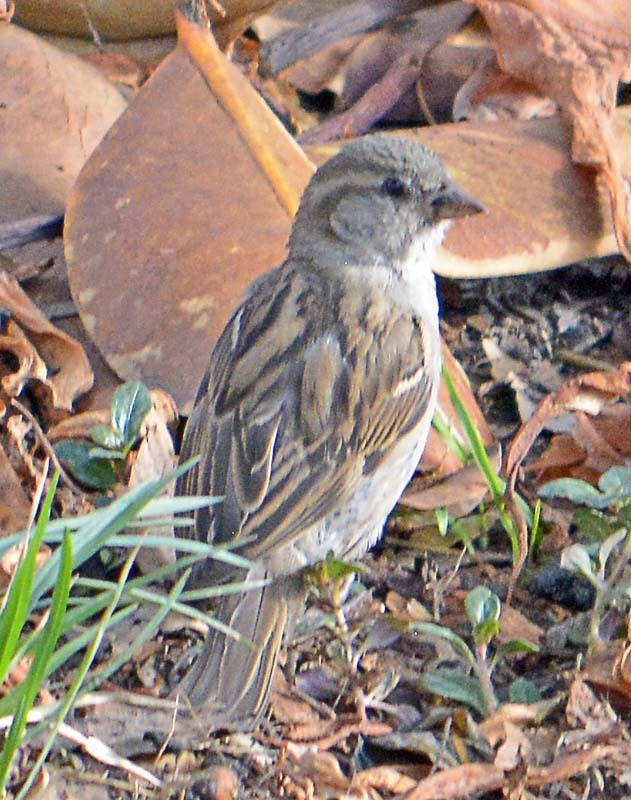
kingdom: Animalia
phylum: Chordata
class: Aves
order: Passeriformes
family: Passeridae
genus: Passer
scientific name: Passer domesticus
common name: House sparrow
